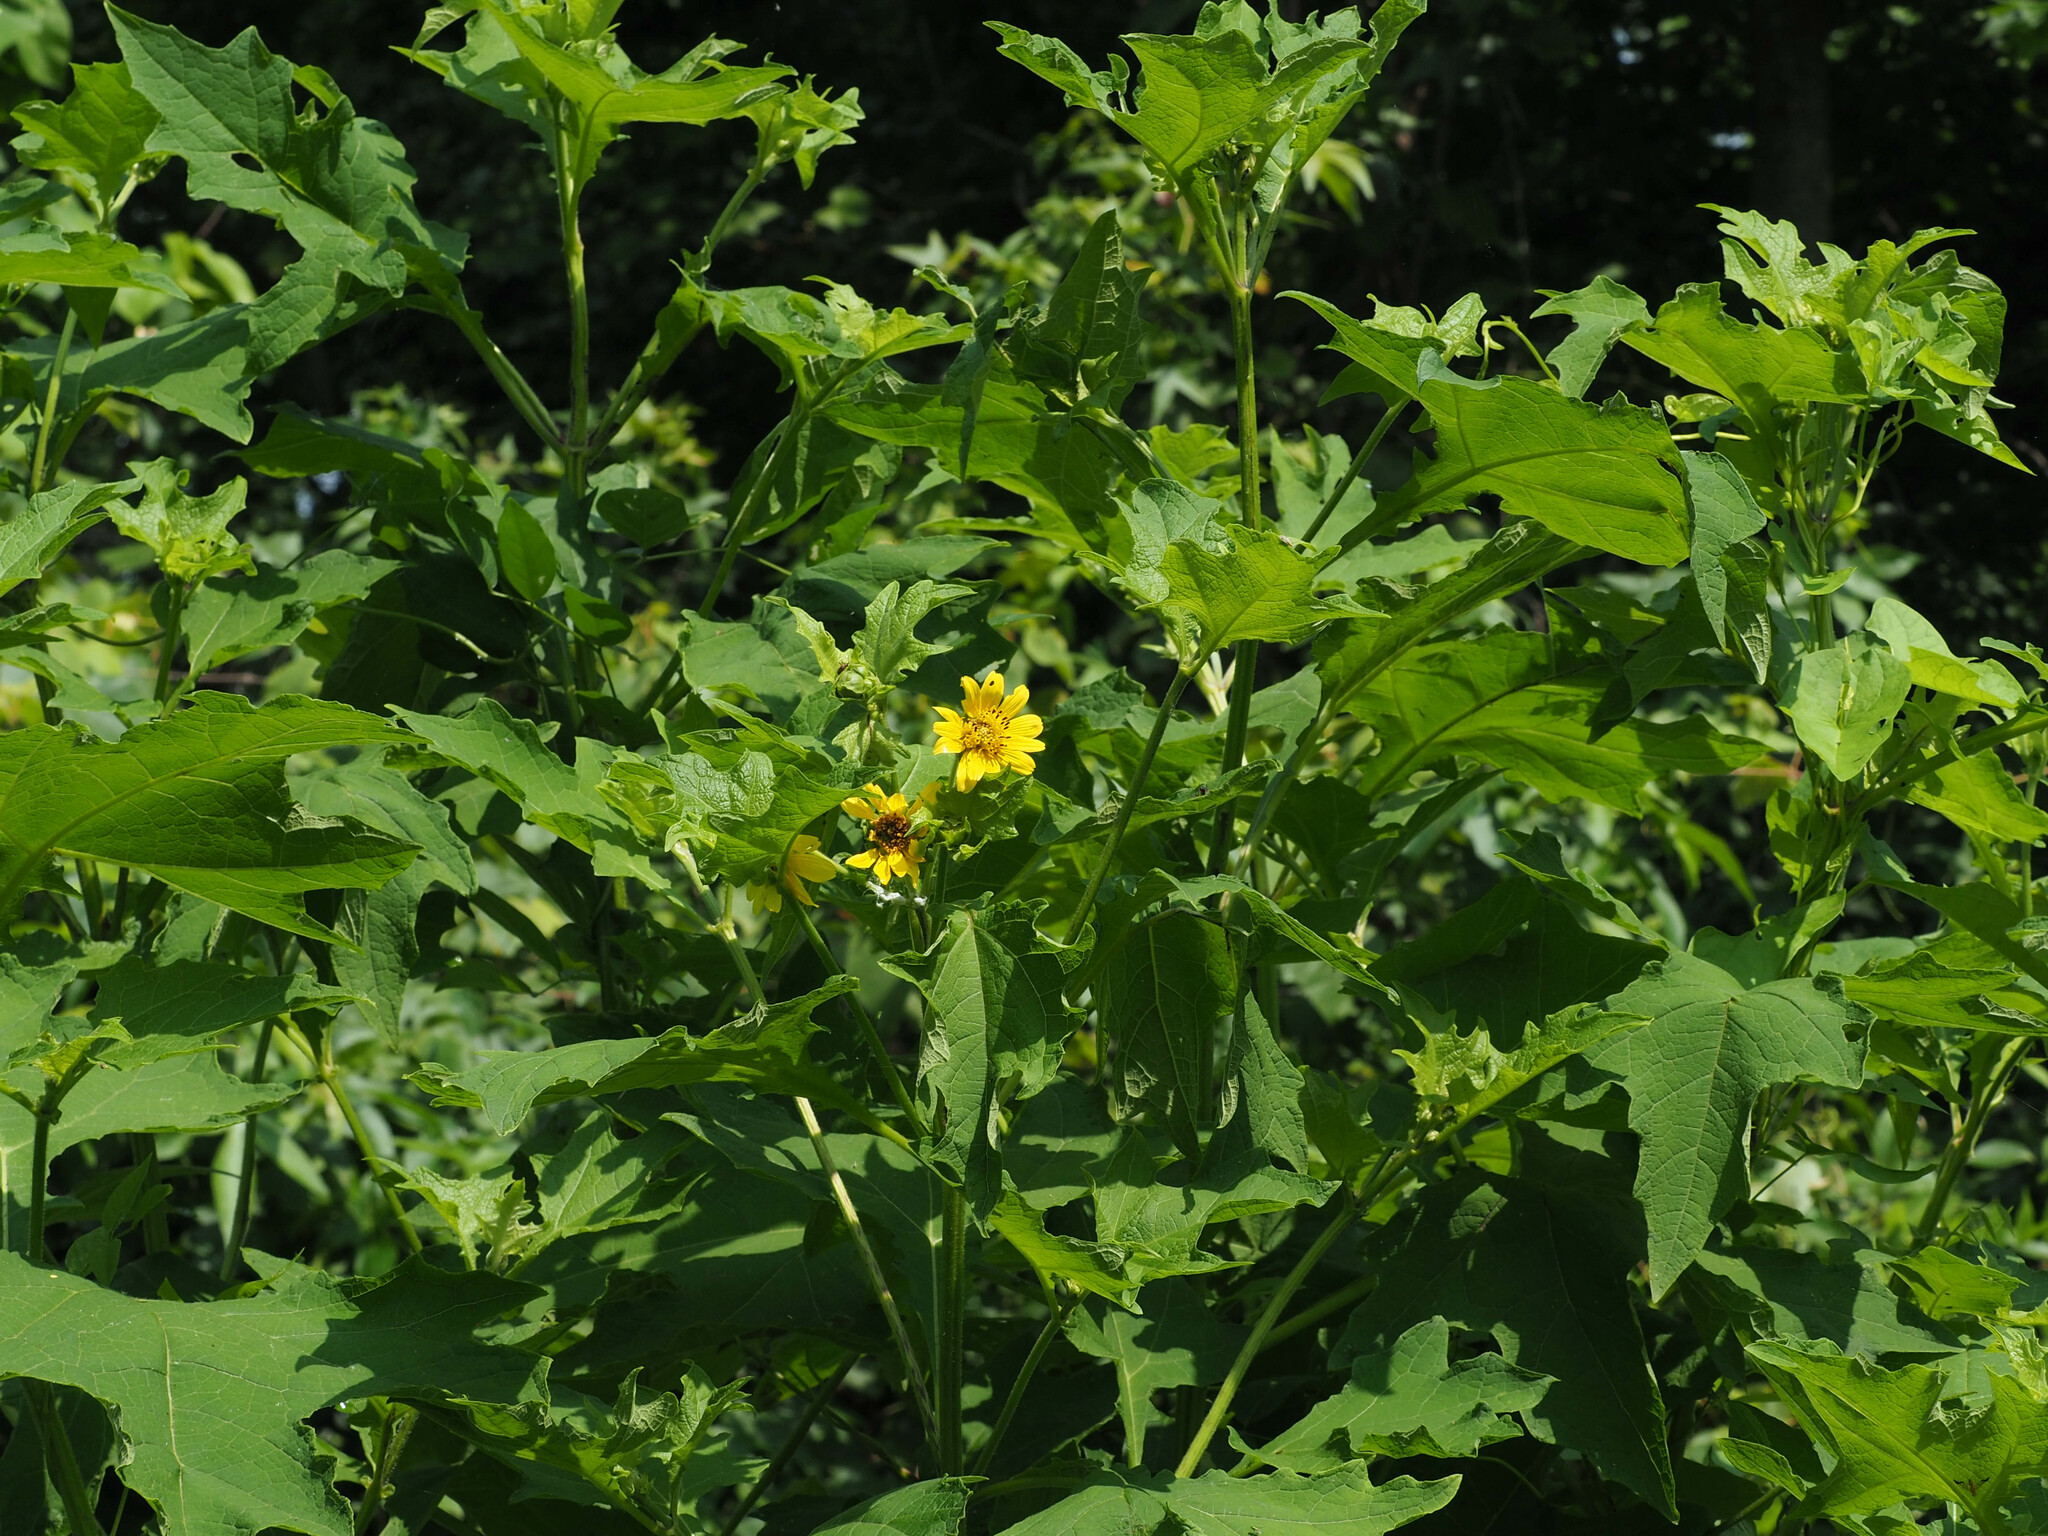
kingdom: Plantae
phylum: Tracheophyta
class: Magnoliopsida
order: Asterales
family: Asteraceae
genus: Smallanthus
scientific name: Smallanthus uvedalia
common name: Bear's-foot
